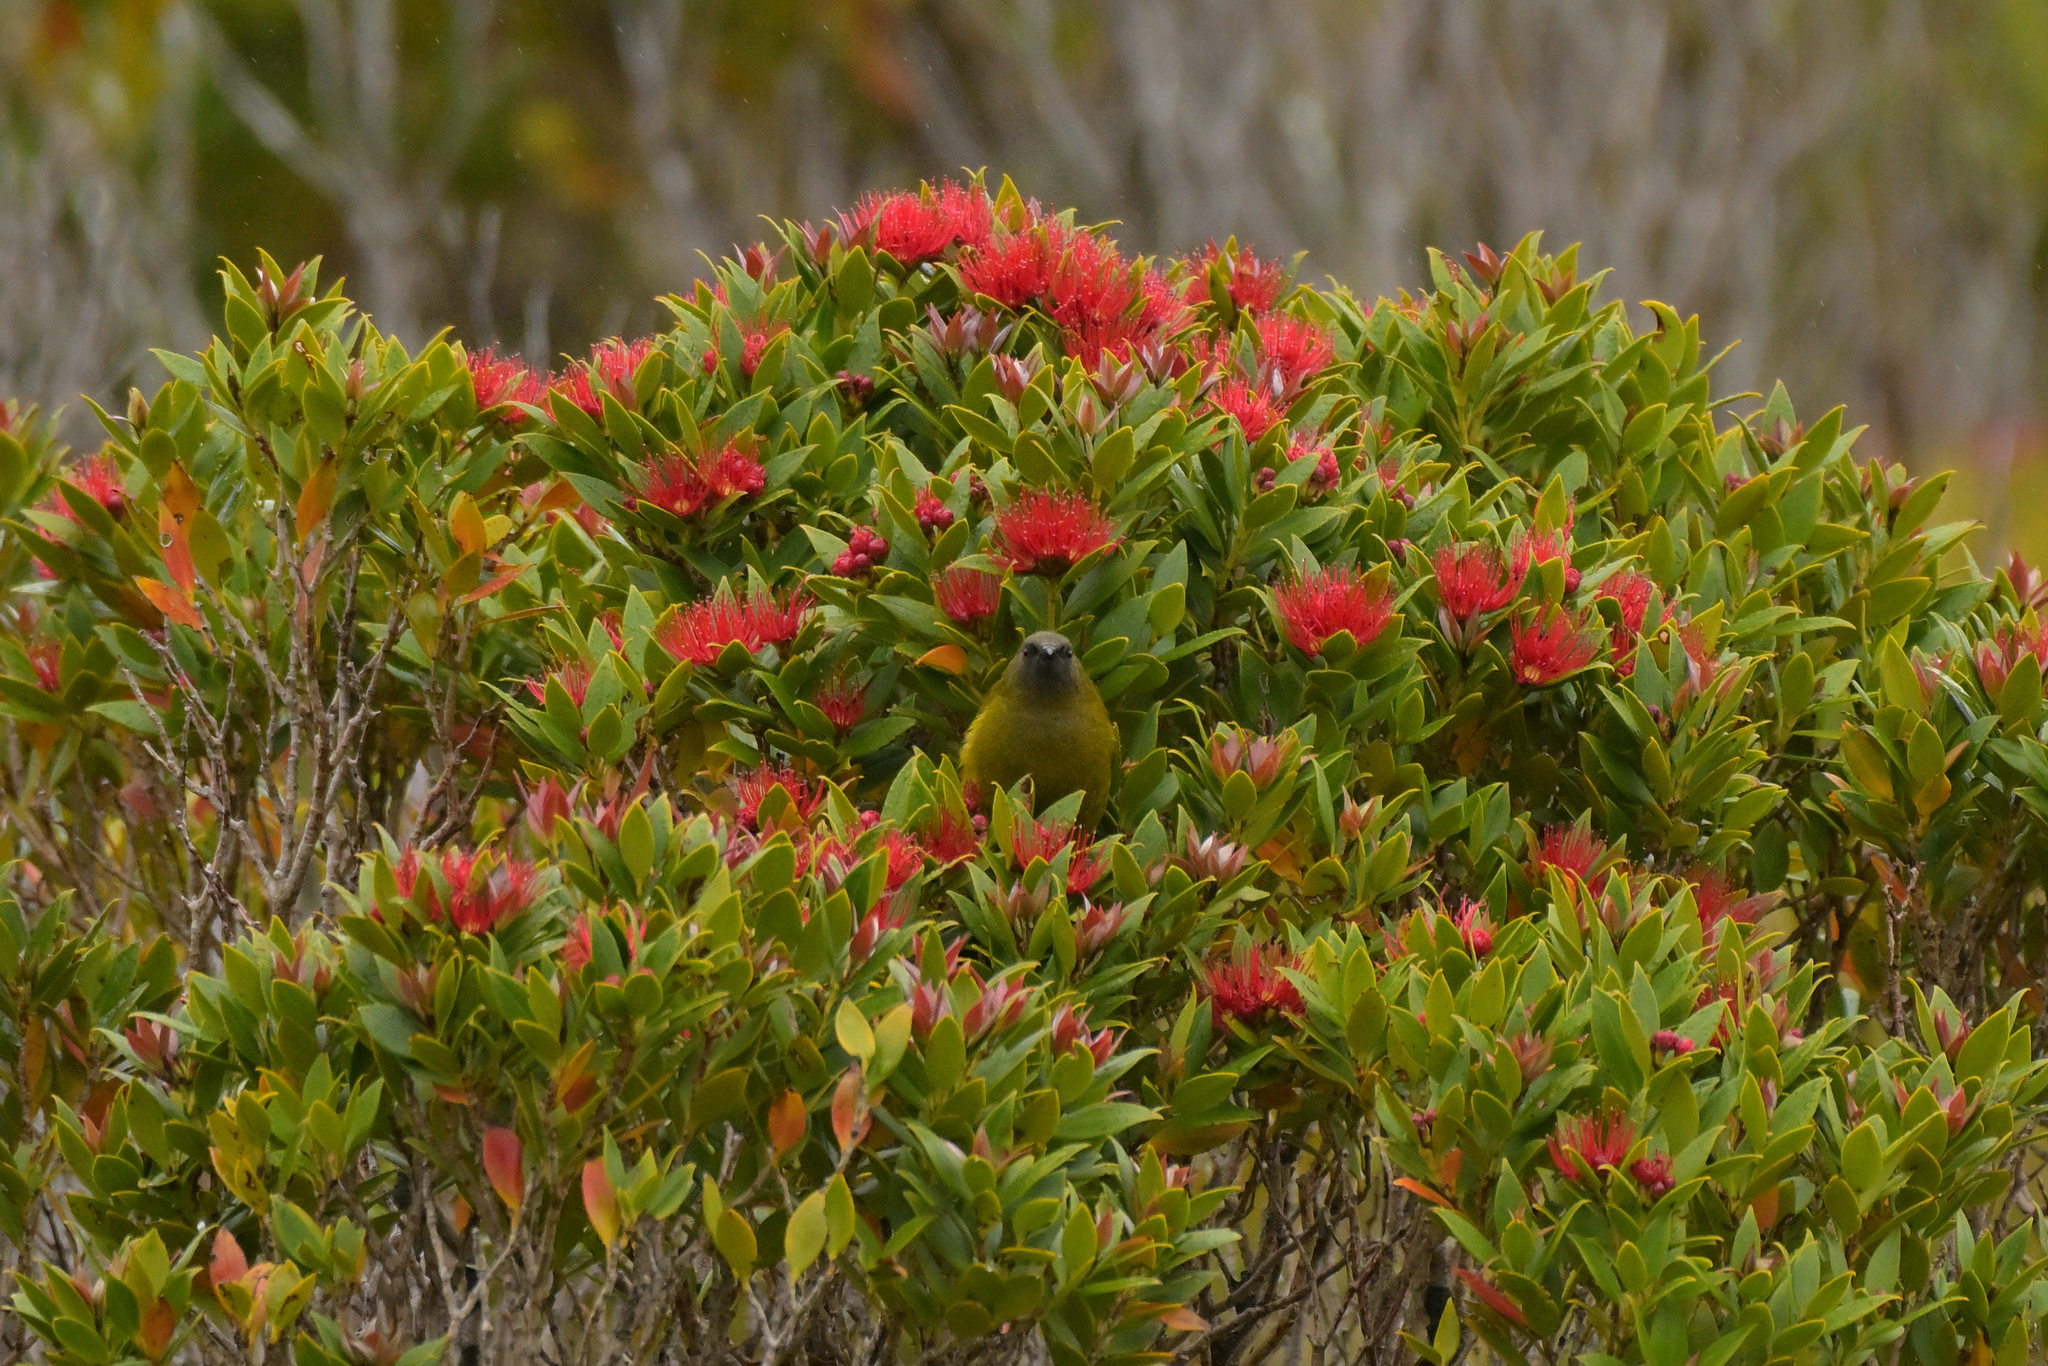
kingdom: Animalia
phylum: Chordata
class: Aves
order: Passeriformes
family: Meliphagidae
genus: Anthornis
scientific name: Anthornis melanura
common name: New zealand bellbird
